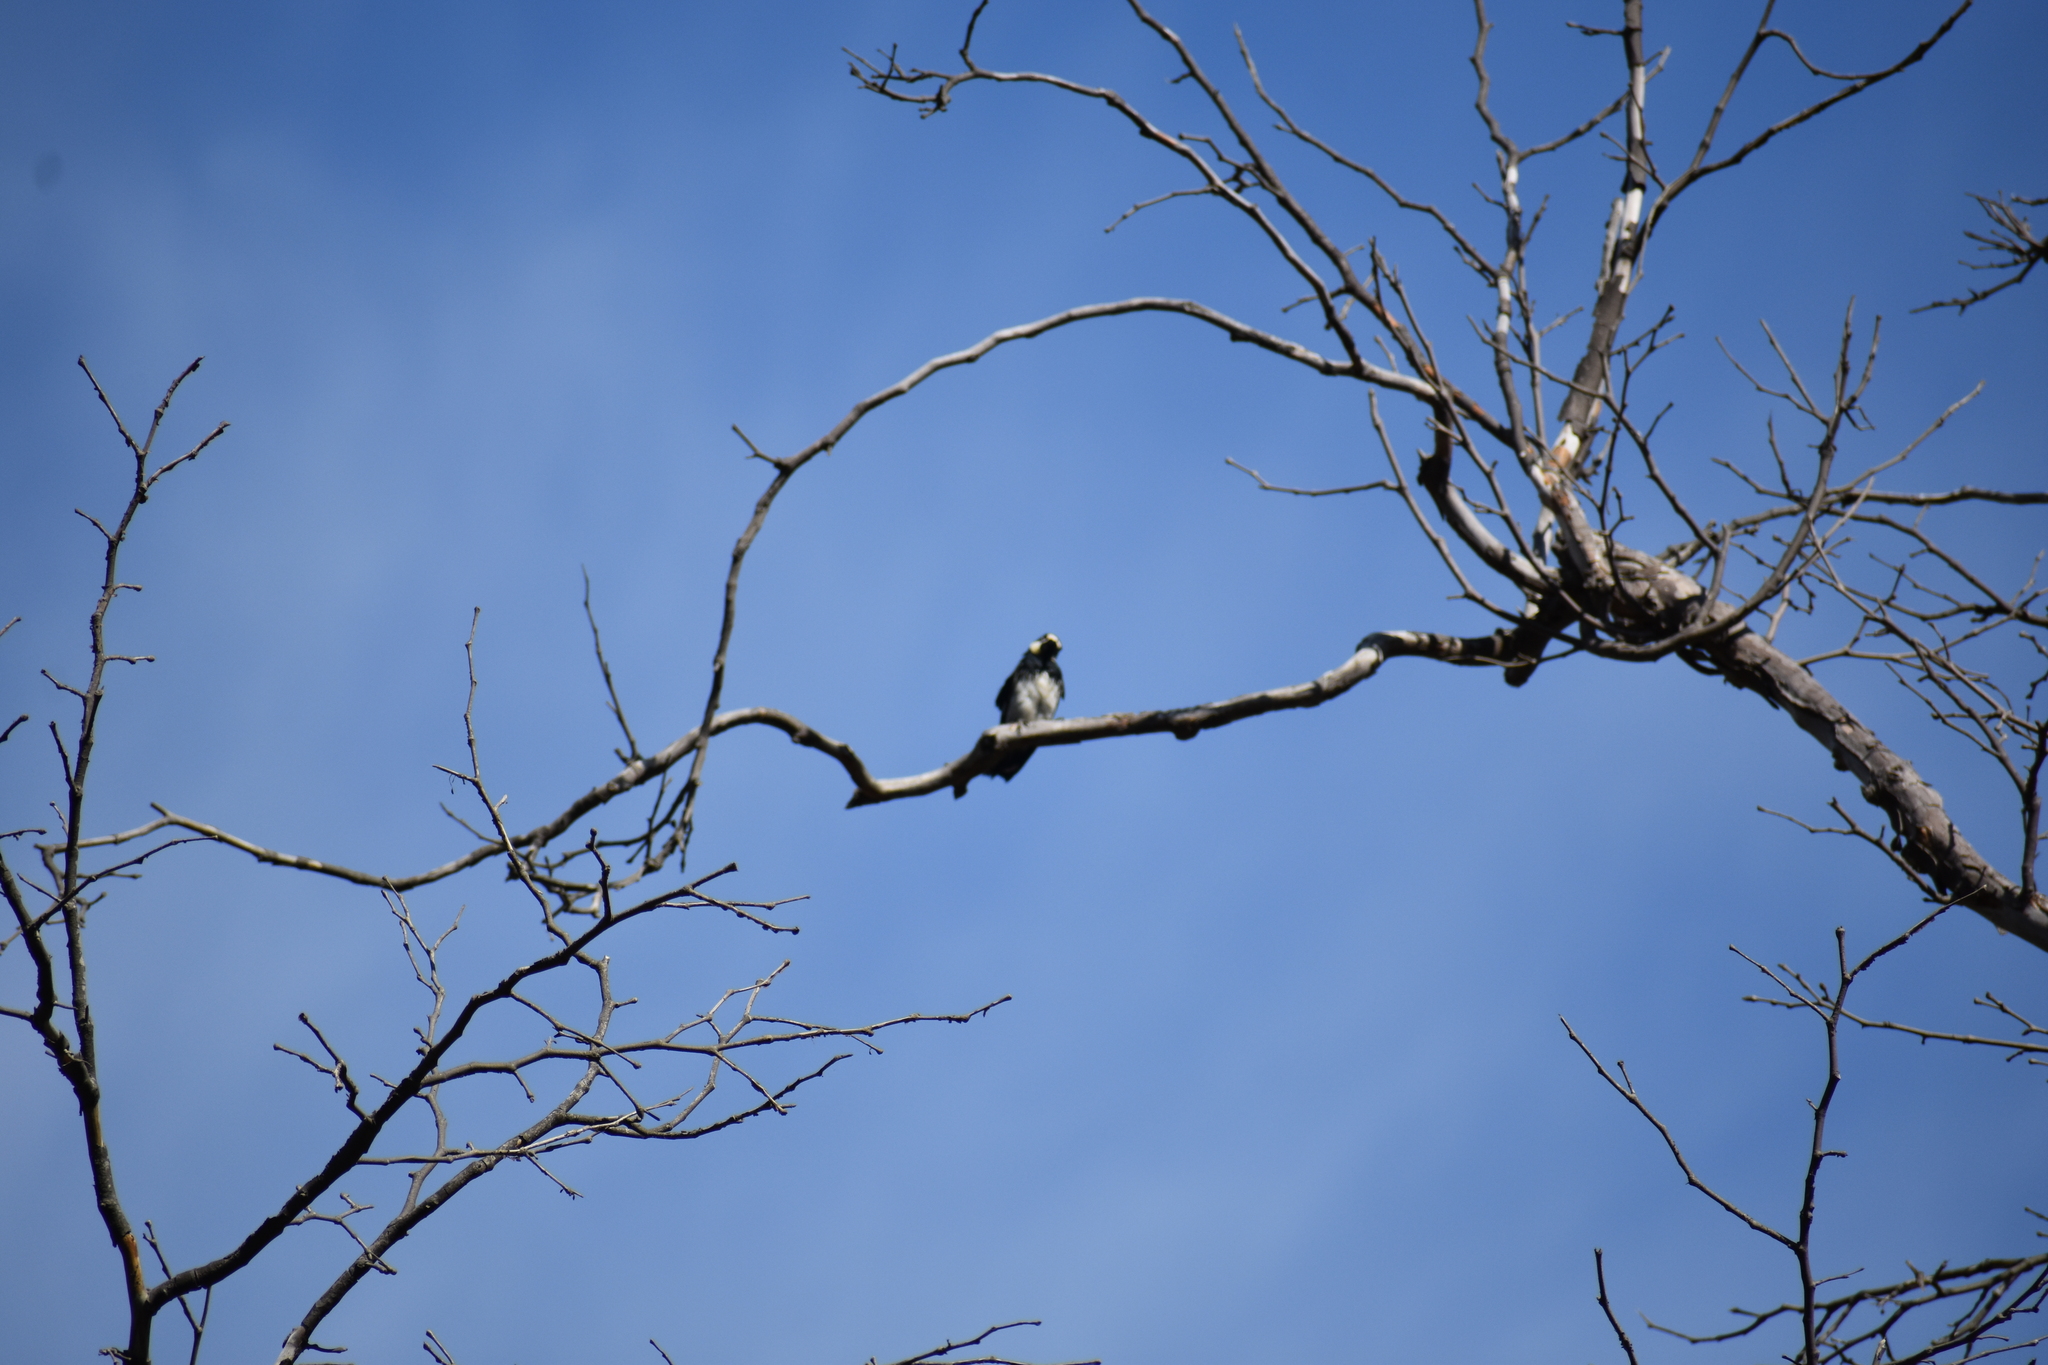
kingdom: Animalia
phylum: Chordata
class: Aves
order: Piciformes
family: Picidae
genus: Melanerpes
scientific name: Melanerpes formicivorus
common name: Acorn woodpecker
